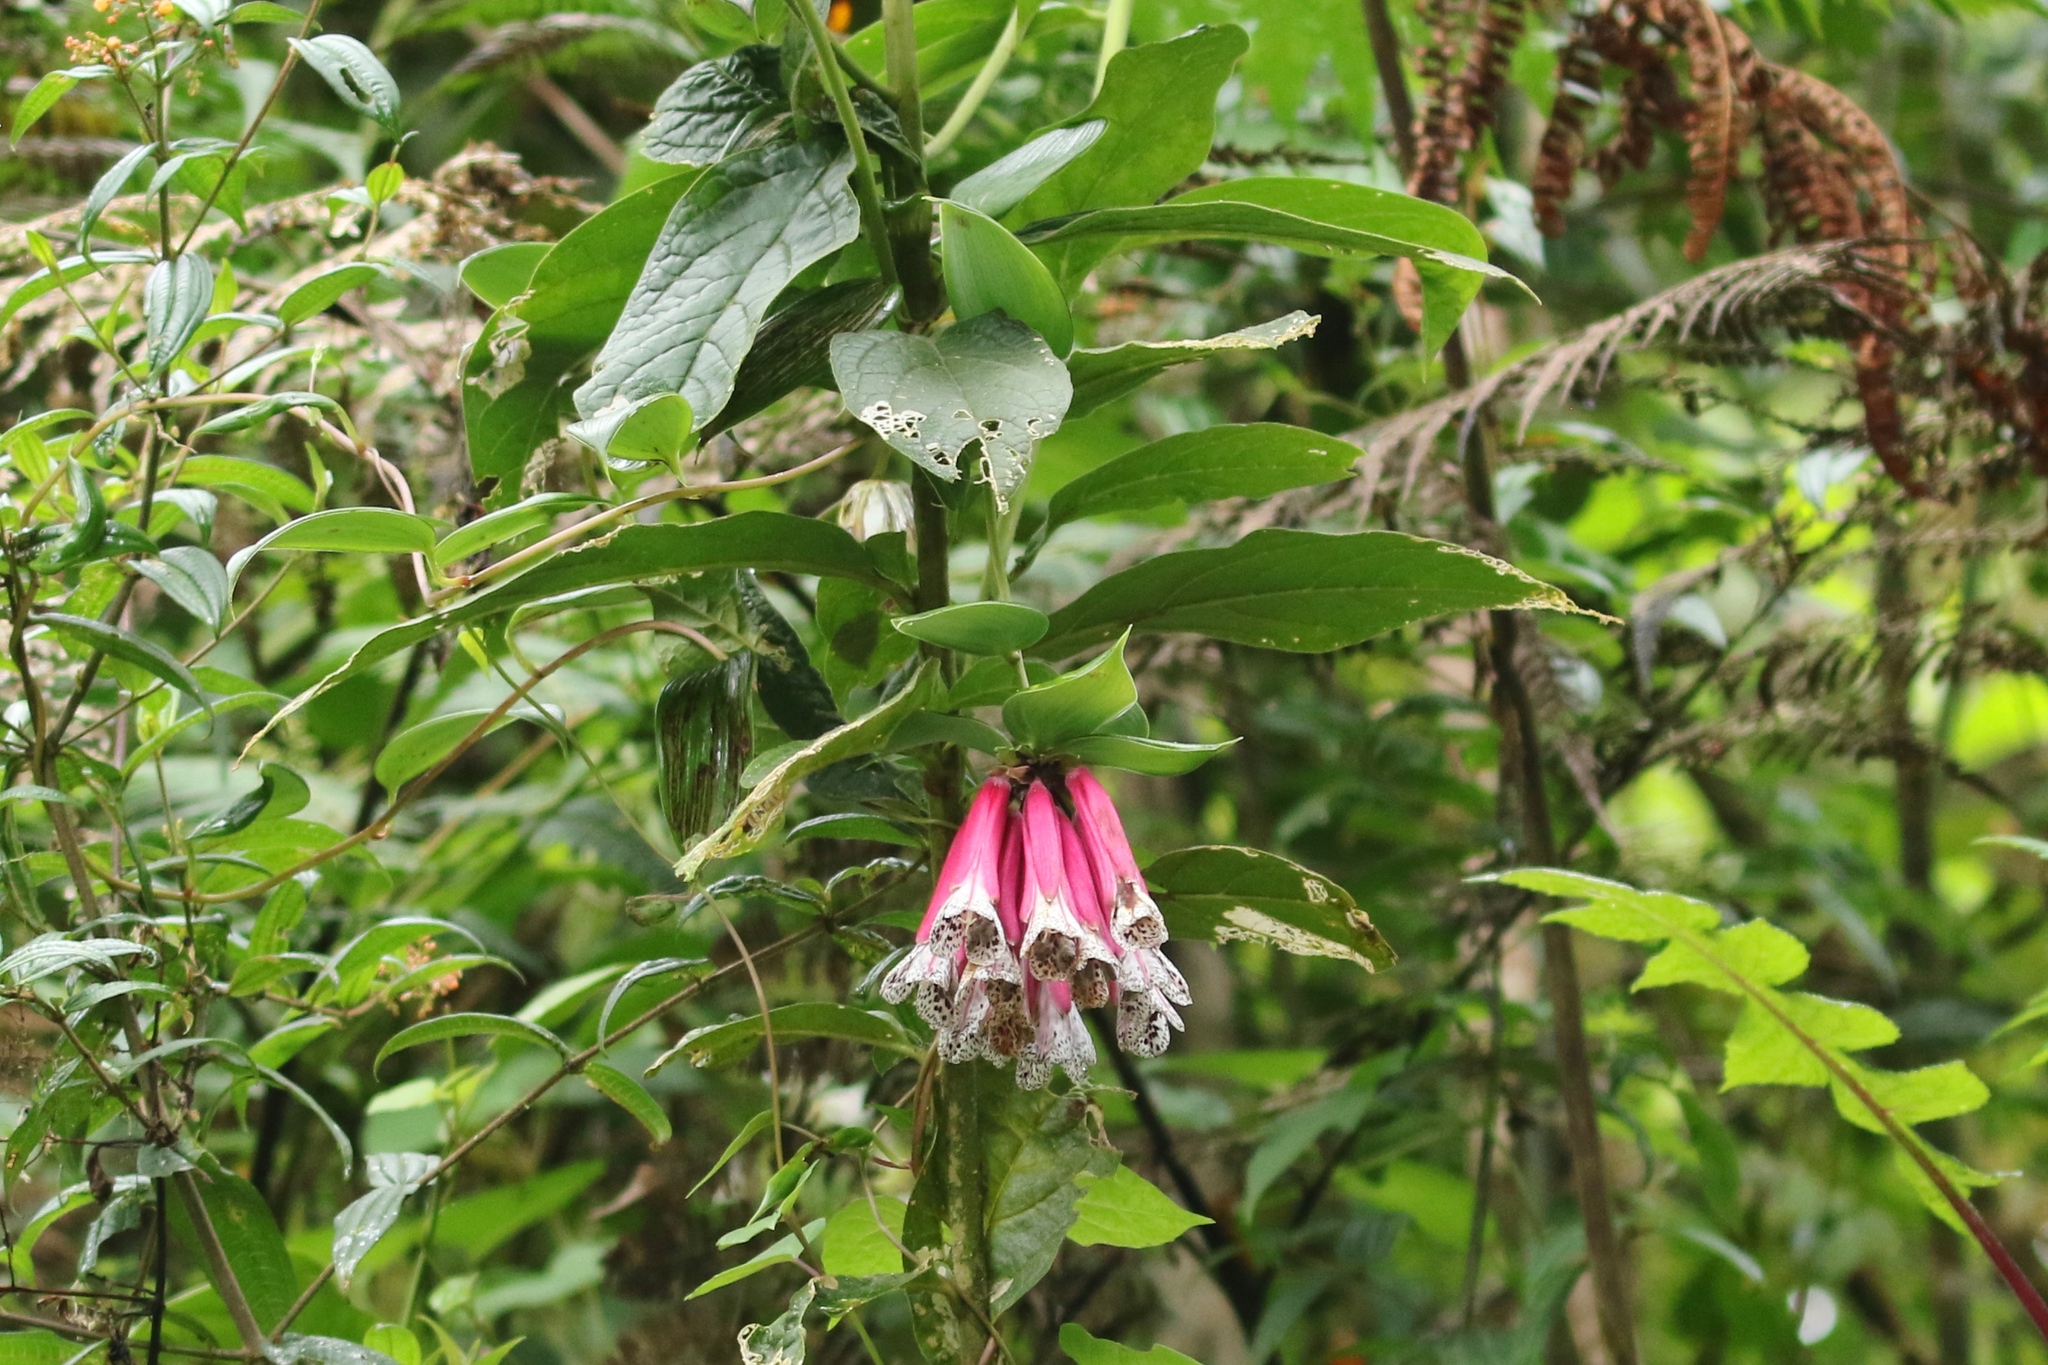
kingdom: Plantae
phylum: Tracheophyta
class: Liliopsida
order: Liliales
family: Alstroemeriaceae
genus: Bomarea
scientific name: Bomarea pardina
